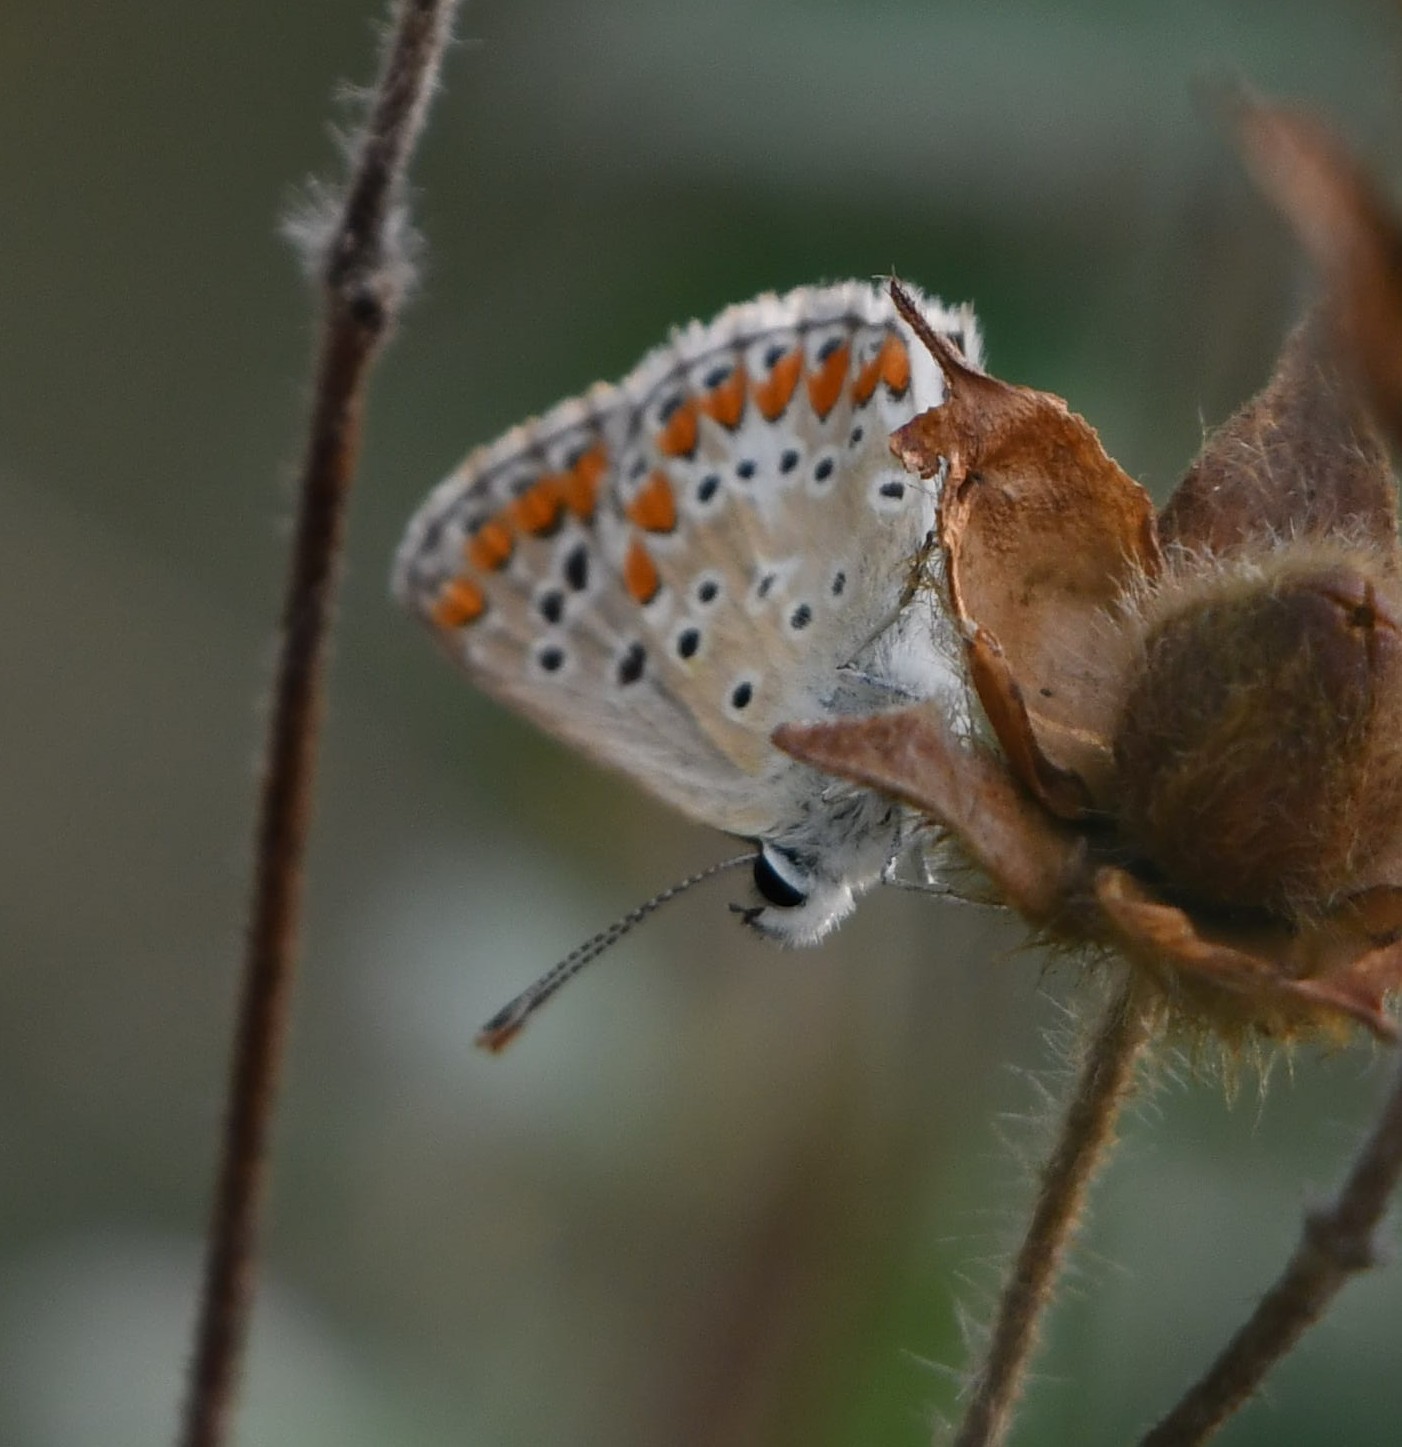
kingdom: Animalia
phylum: Arthropoda
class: Insecta
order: Lepidoptera
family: Lycaenidae
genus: Aricia
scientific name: Aricia agestis
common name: Brown argus
